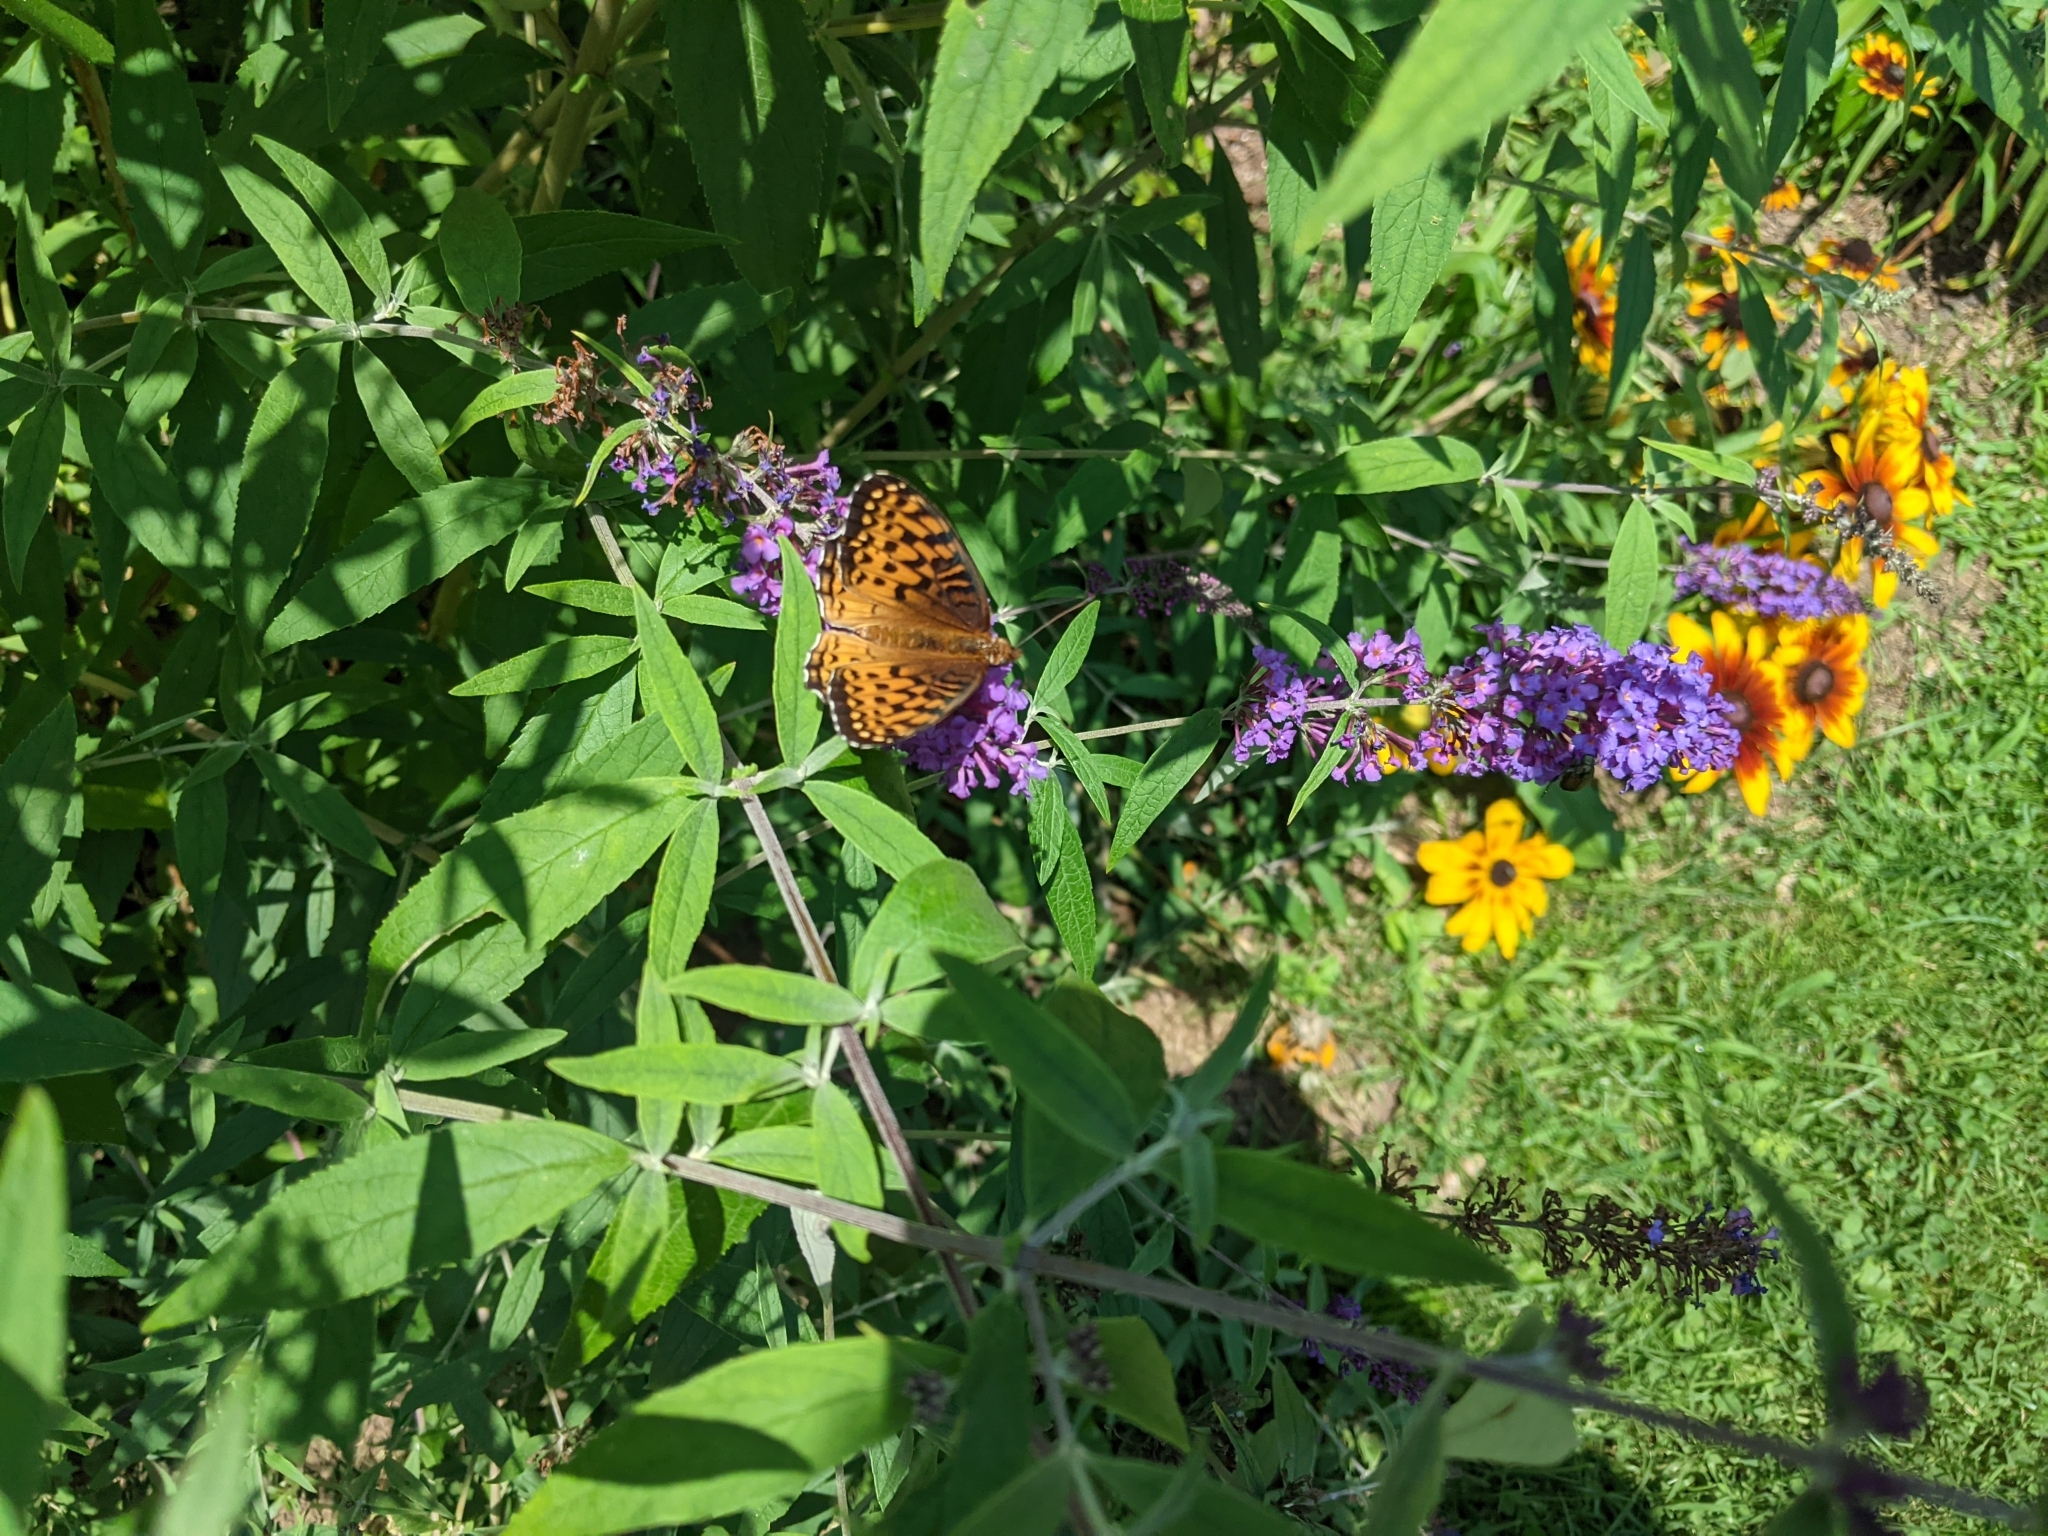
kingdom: Animalia
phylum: Arthropoda
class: Insecta
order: Lepidoptera
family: Nymphalidae
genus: Speyeria
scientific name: Speyeria atlantis
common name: Atlantis fritillary
